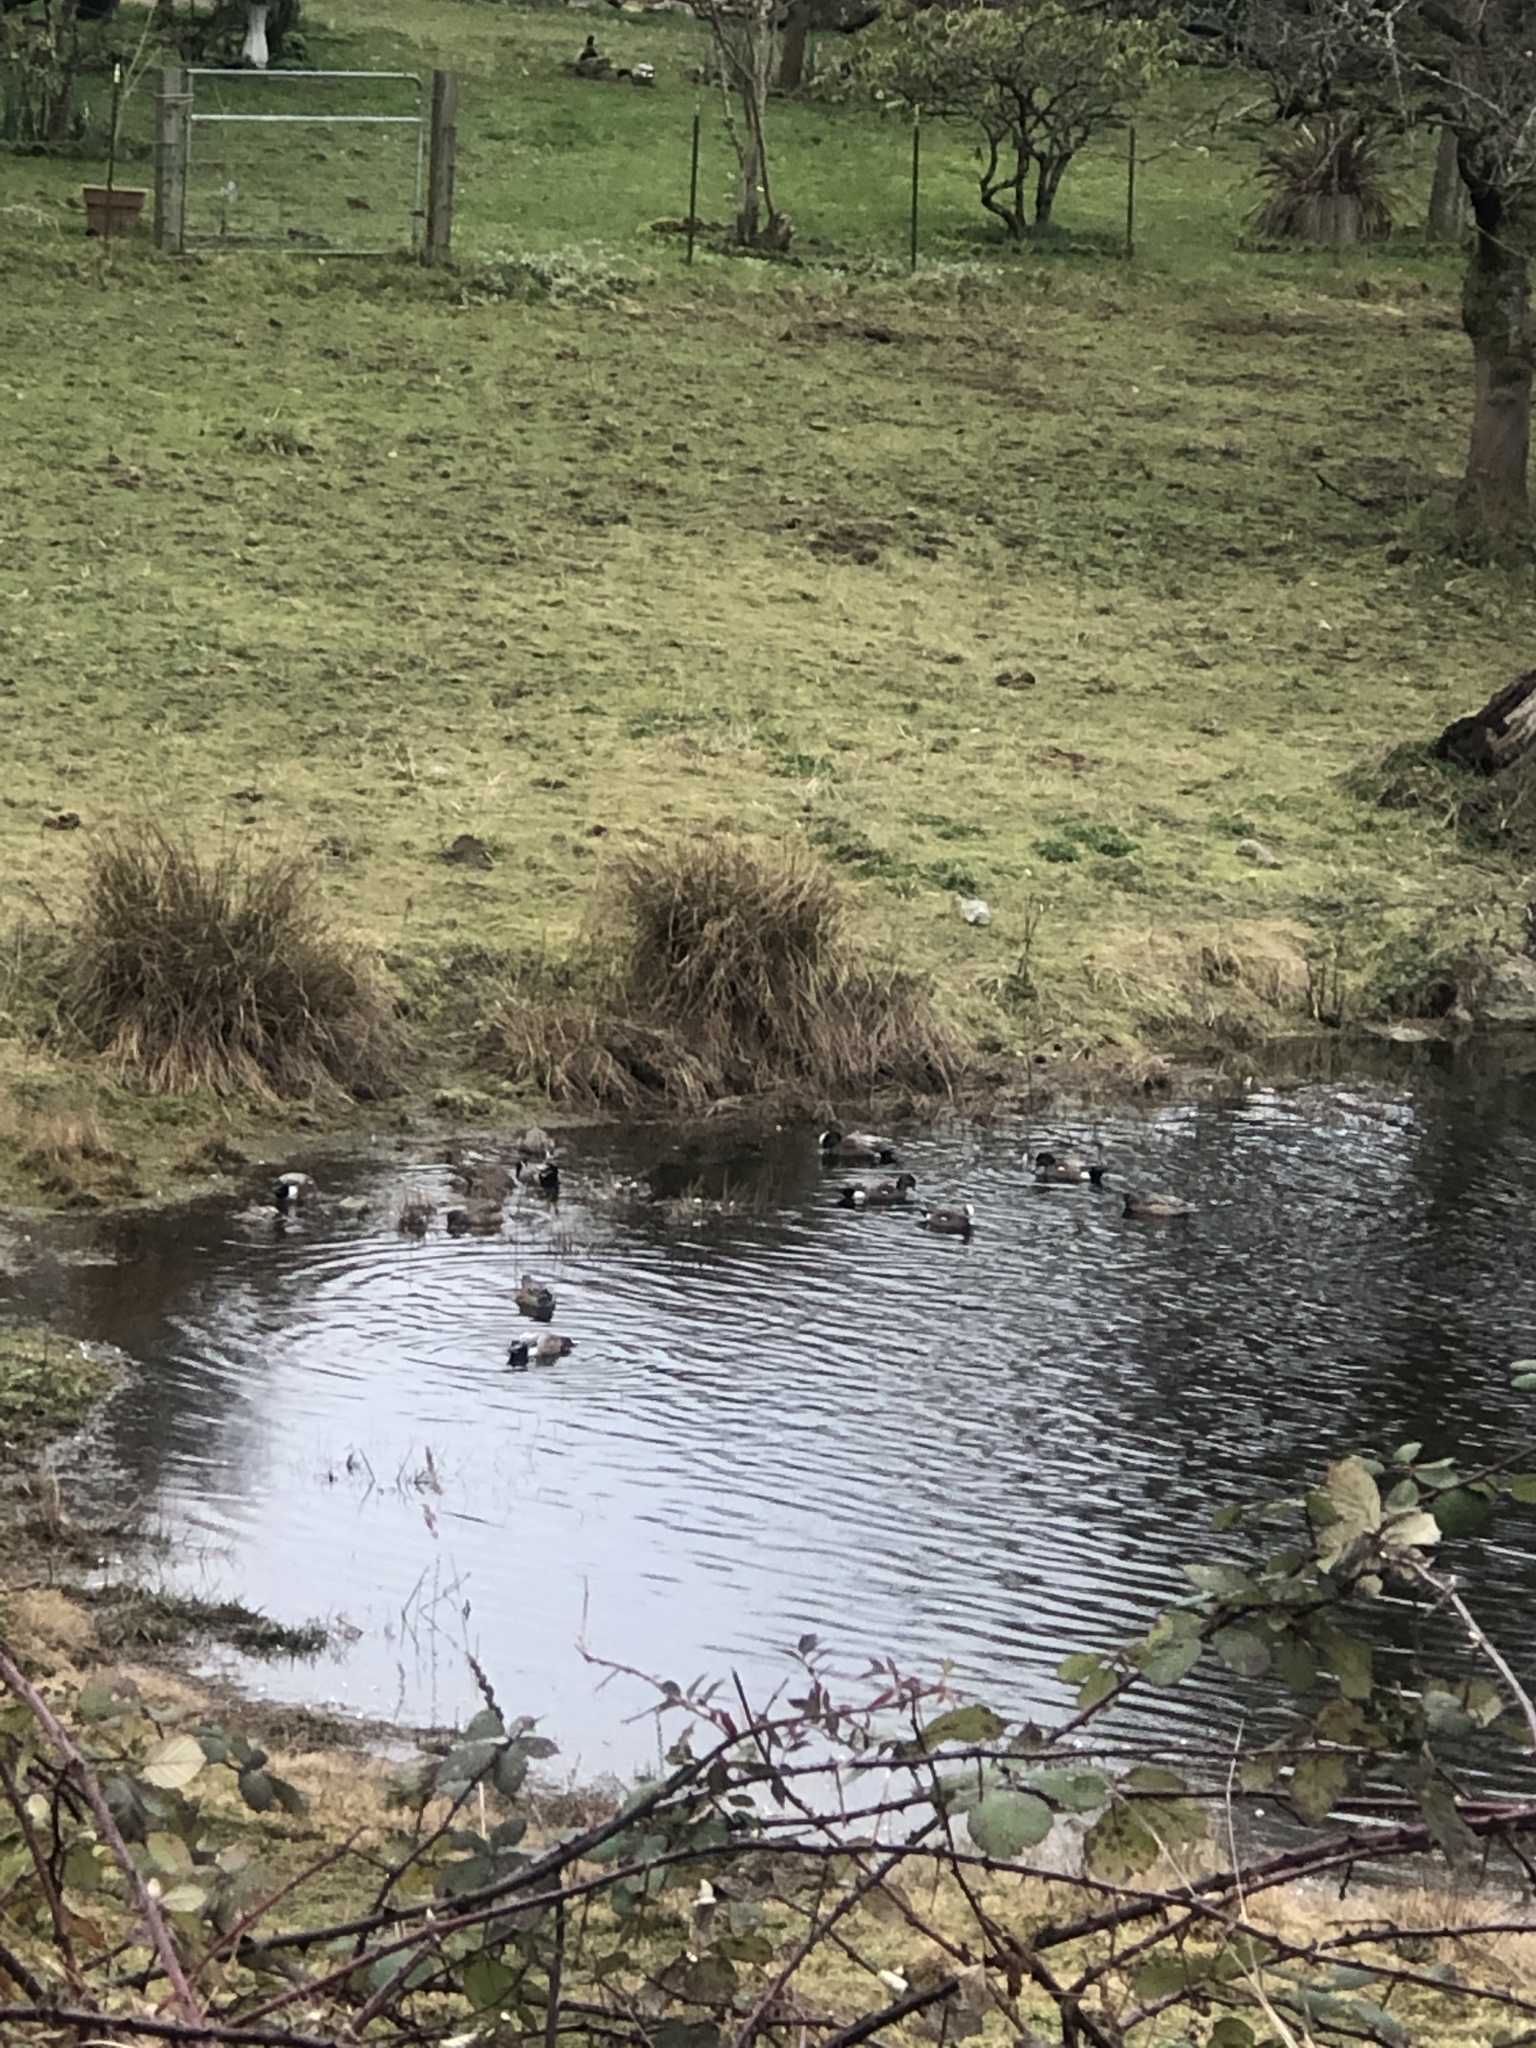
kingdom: Animalia
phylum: Chordata
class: Aves
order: Anseriformes
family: Anatidae
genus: Anas
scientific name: Anas platyrhynchos
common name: Mallard
